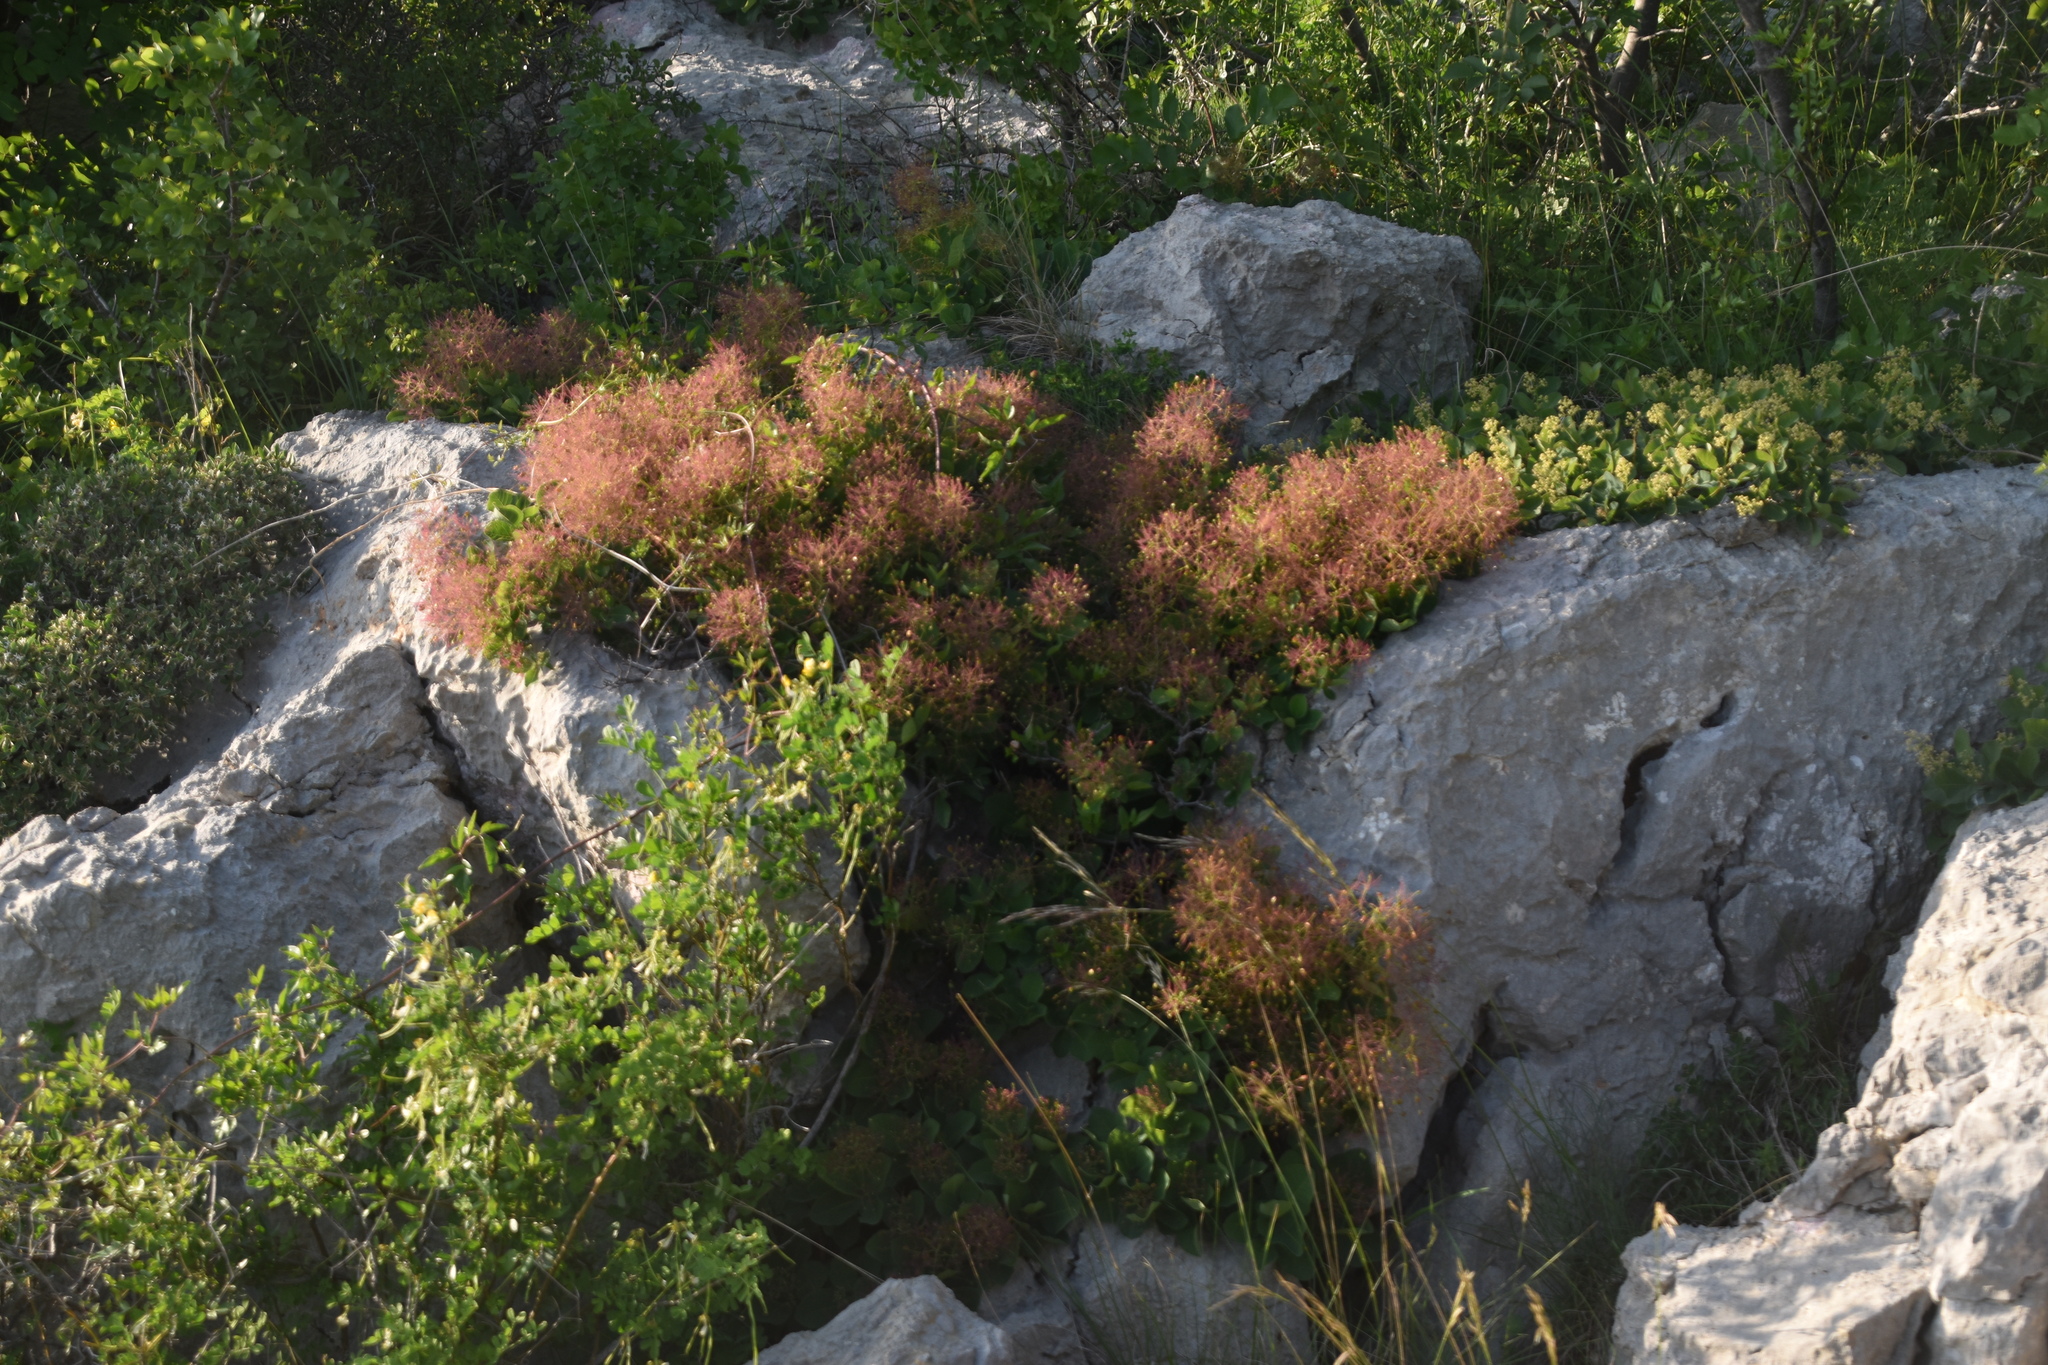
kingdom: Plantae
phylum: Tracheophyta
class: Magnoliopsida
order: Sapindales
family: Anacardiaceae
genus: Cotinus
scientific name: Cotinus coggygria
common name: Smoke-tree
